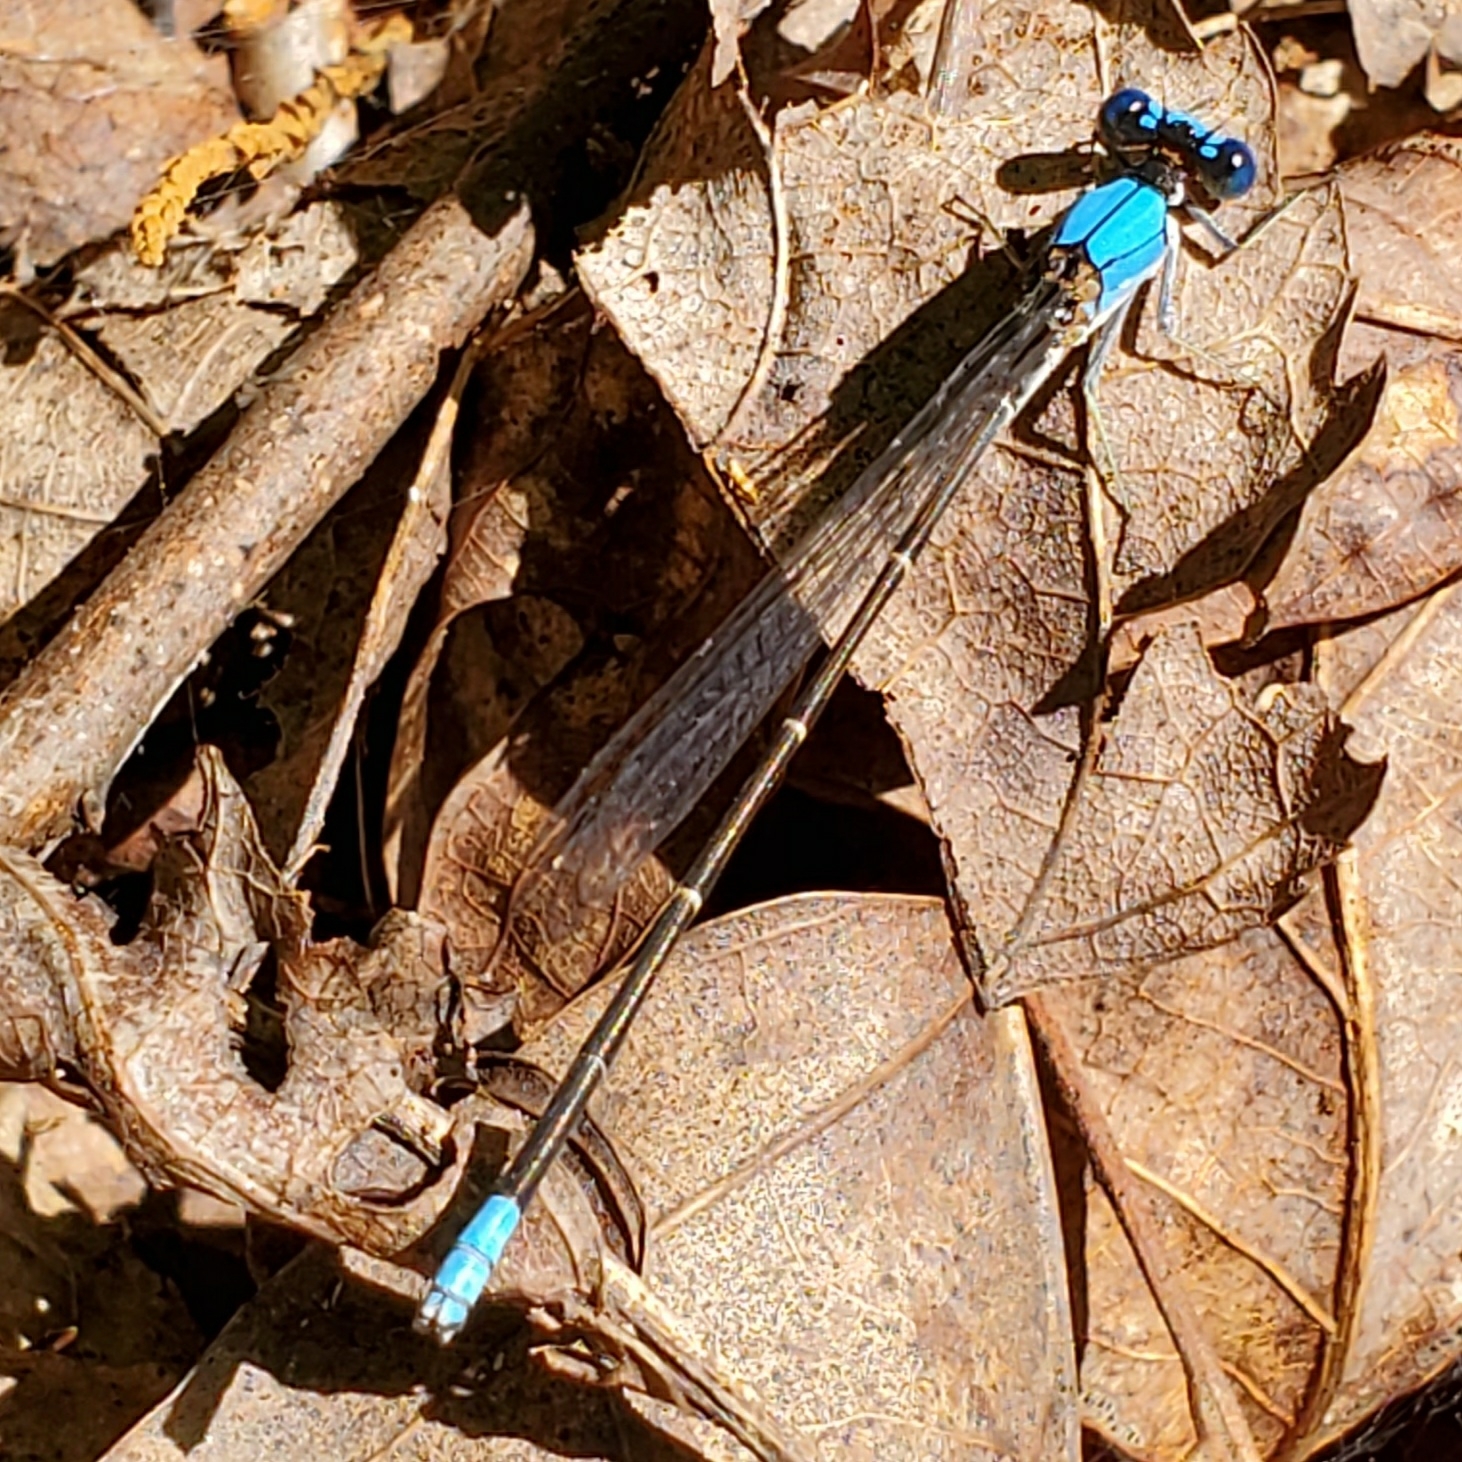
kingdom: Animalia
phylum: Arthropoda
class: Insecta
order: Odonata
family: Coenagrionidae
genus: Argia
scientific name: Argia apicalis
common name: Blue-fronted dancer
